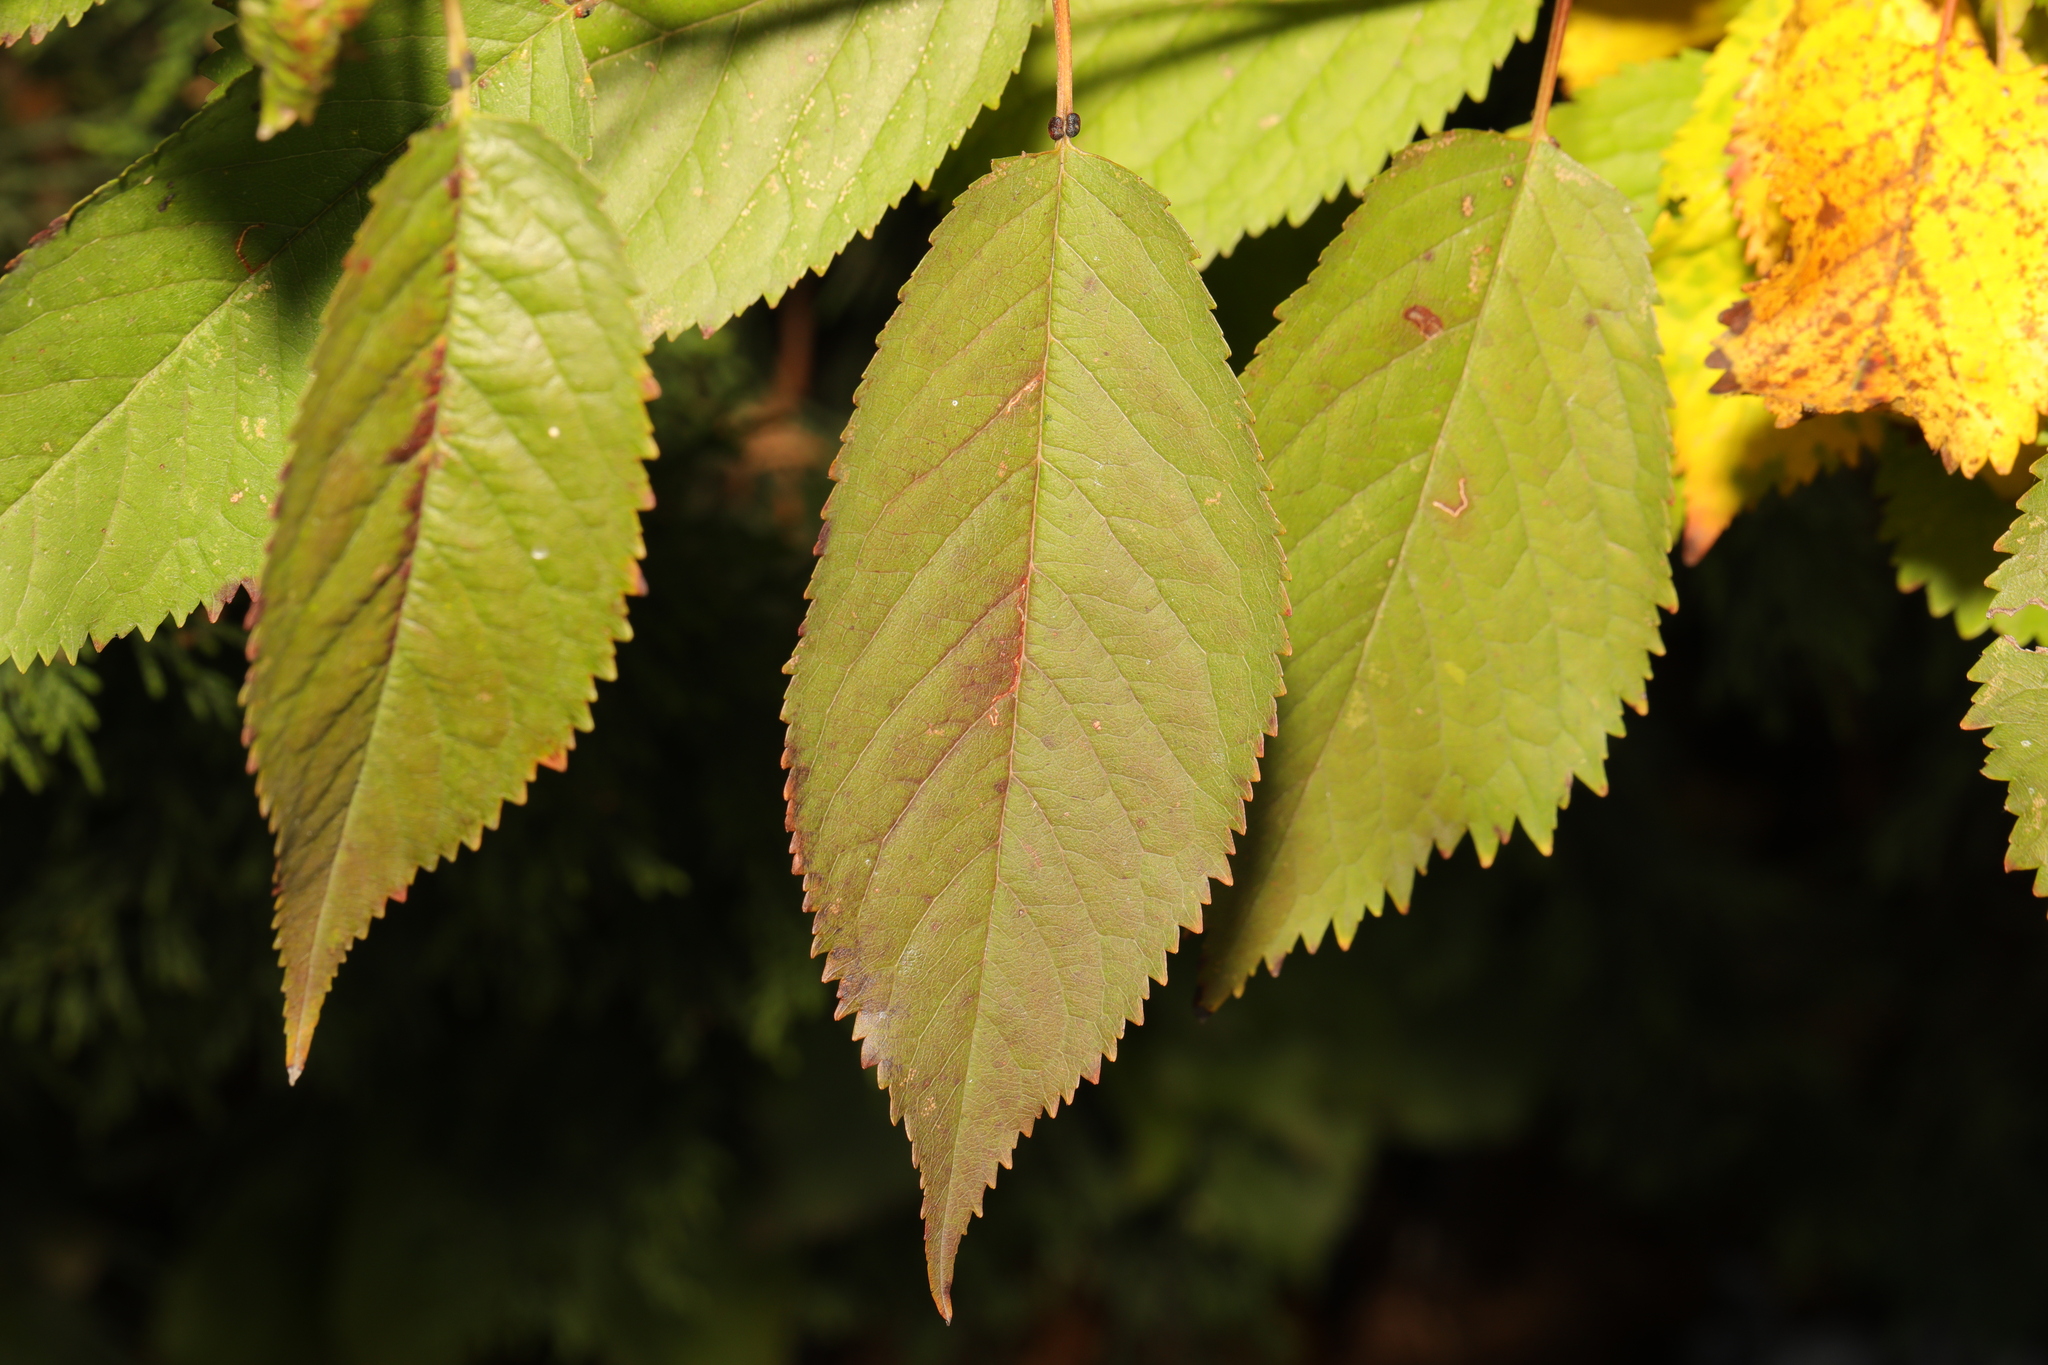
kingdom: Plantae
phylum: Tracheophyta
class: Magnoliopsida
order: Rosales
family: Rosaceae
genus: Prunus
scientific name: Prunus avium
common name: Sweet cherry
